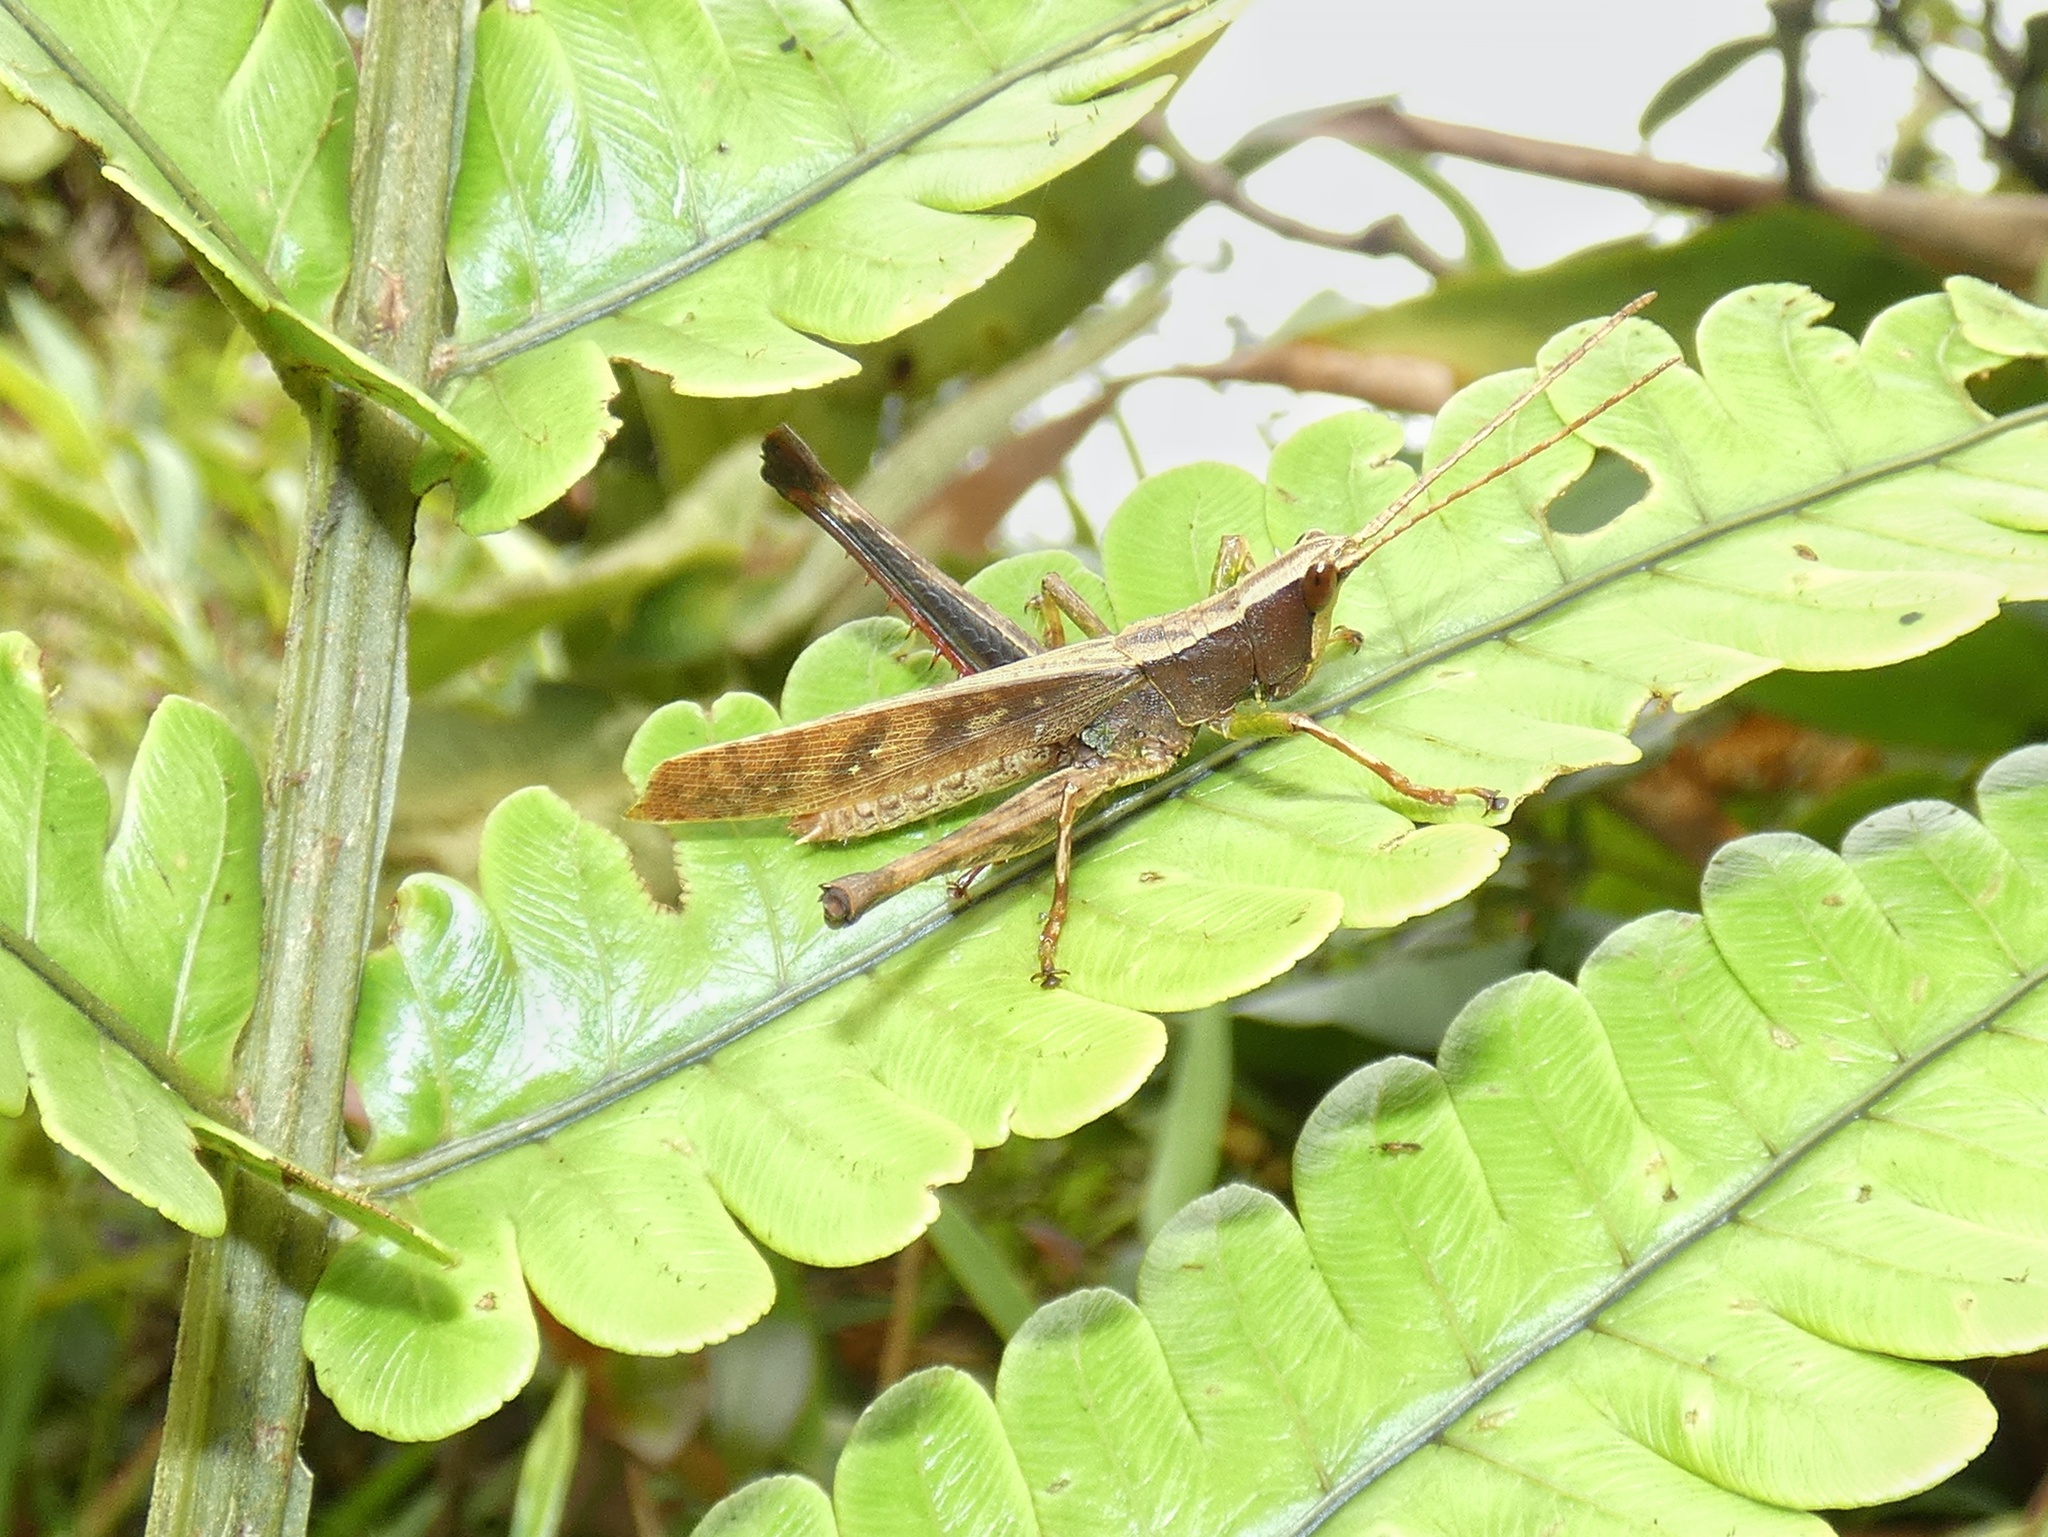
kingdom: Animalia
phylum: Arthropoda
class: Insecta
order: Orthoptera
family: Romaleidae
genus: Phaeoparia
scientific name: Phaeoparia depressicornis
